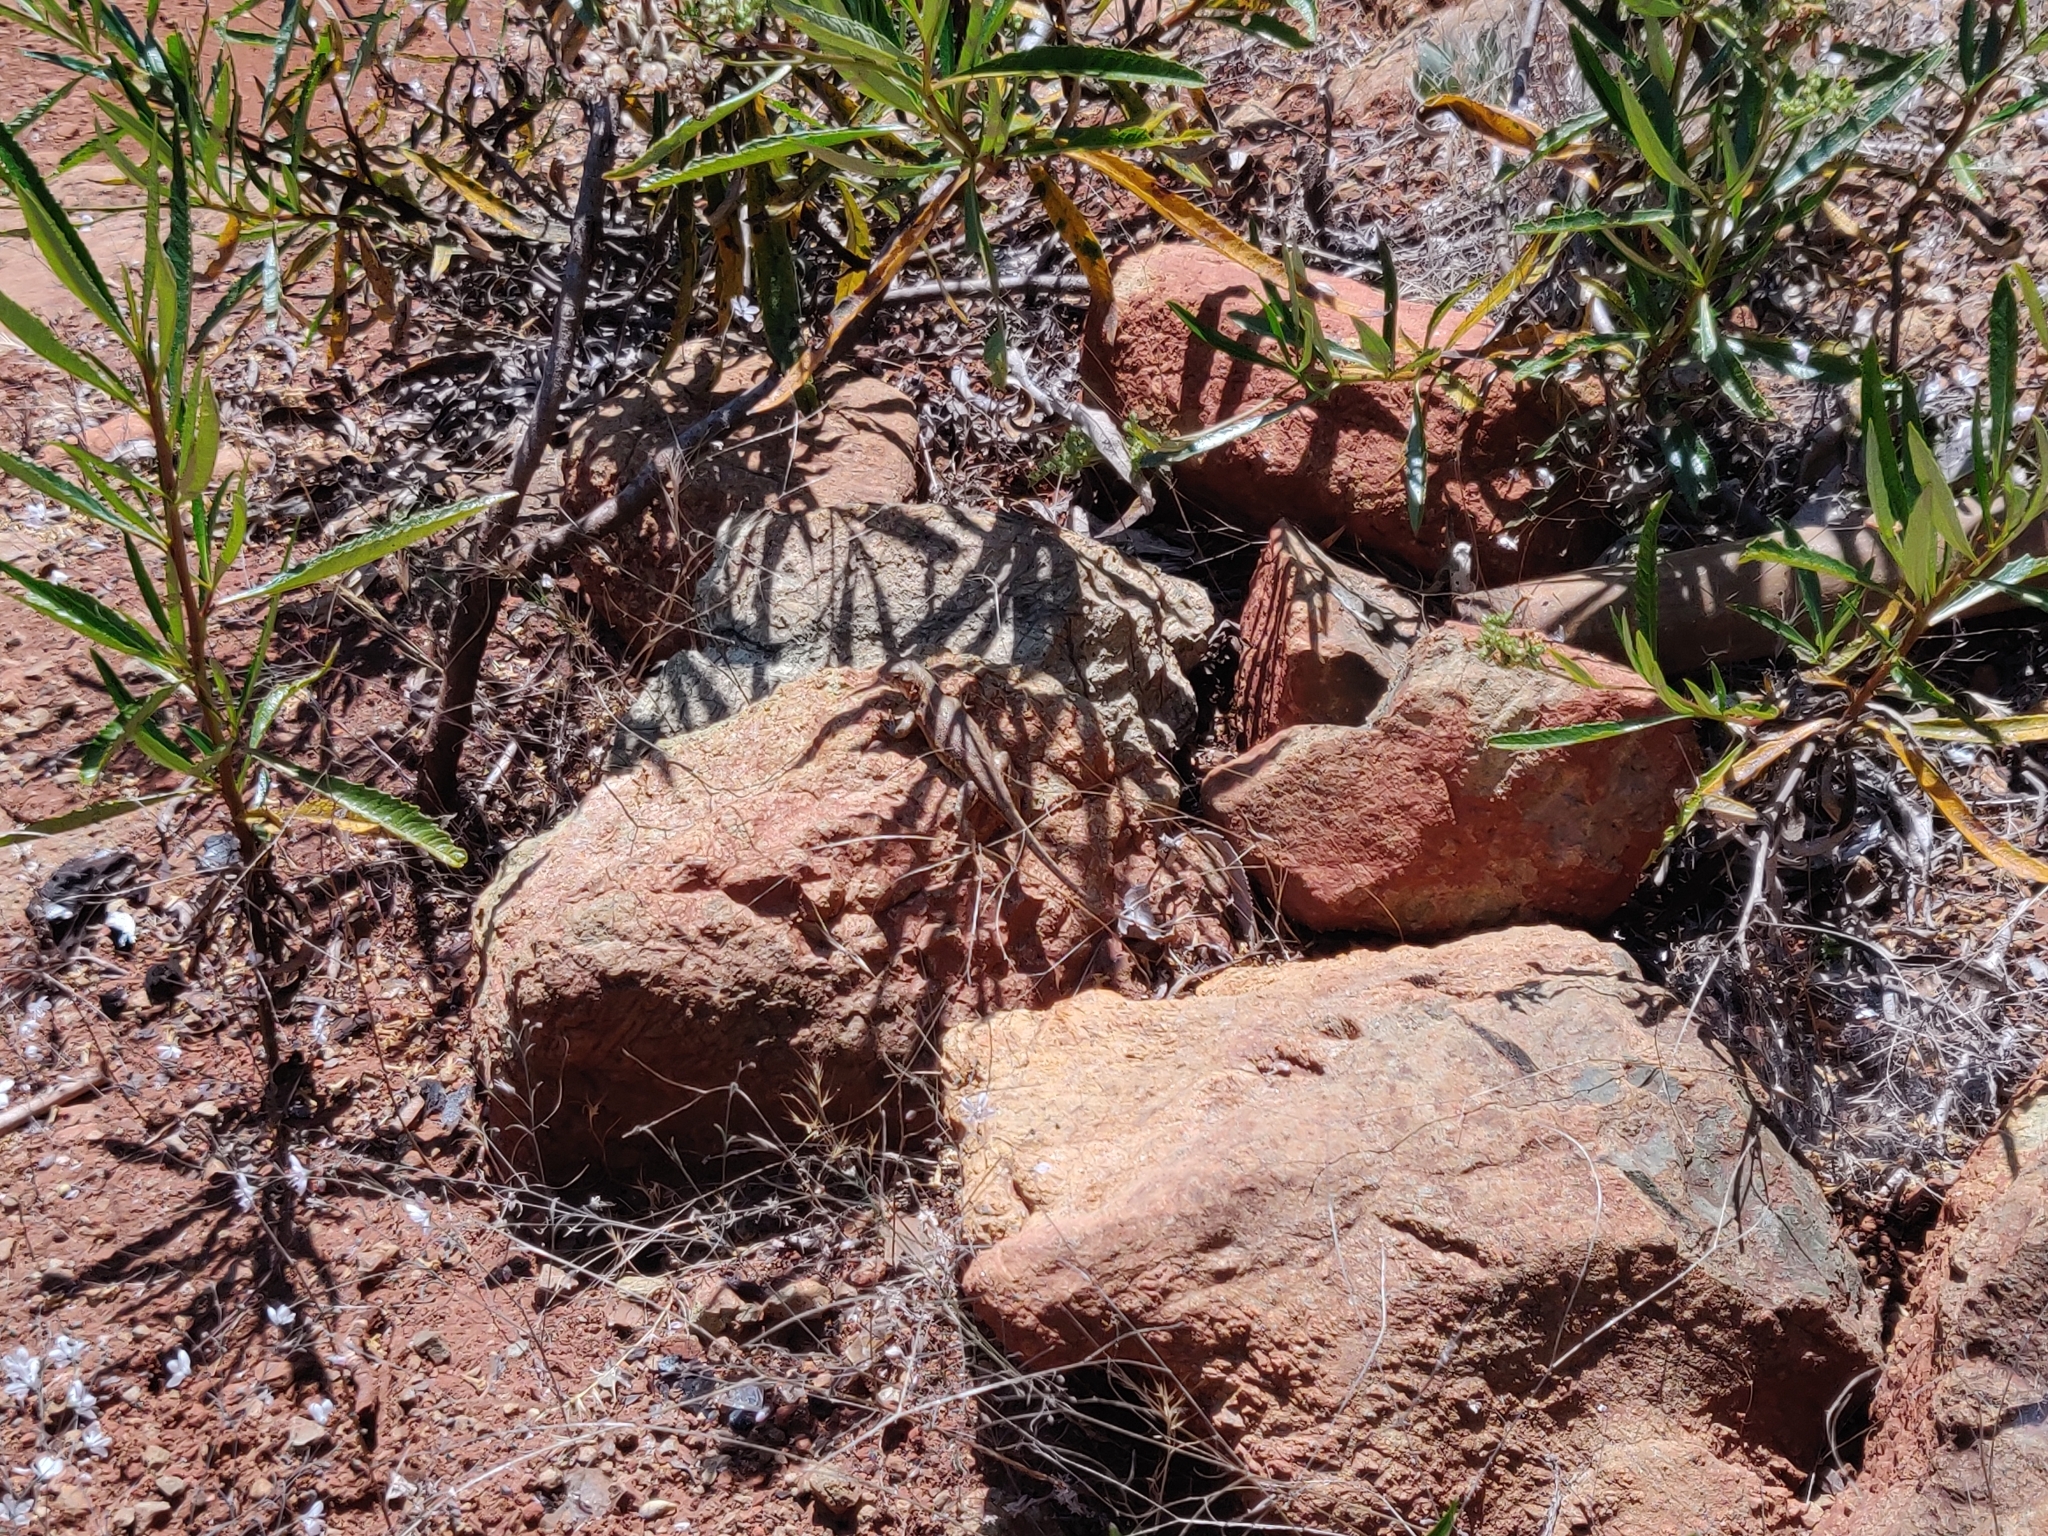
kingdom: Animalia
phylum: Chordata
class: Squamata
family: Phrynosomatidae
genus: Sceloporus
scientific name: Sceloporus graciosus
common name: Sagebrush lizard
